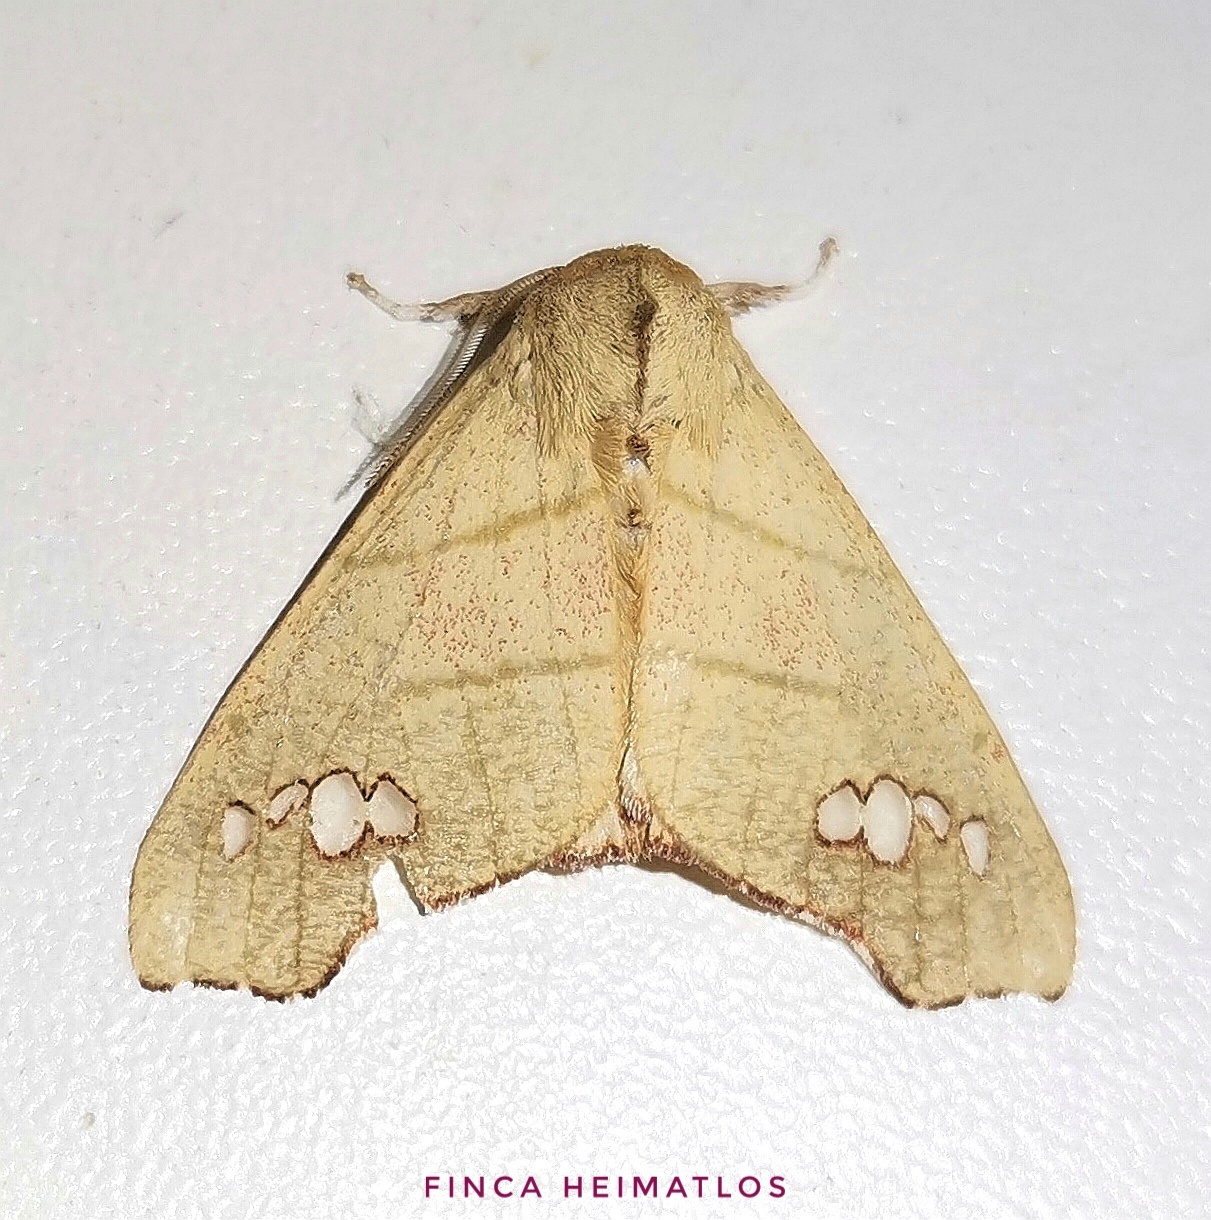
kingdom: Animalia
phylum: Arthropoda
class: Insecta
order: Lepidoptera
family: Erebidae
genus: Zatrephes
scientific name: Zatrephes fallax
